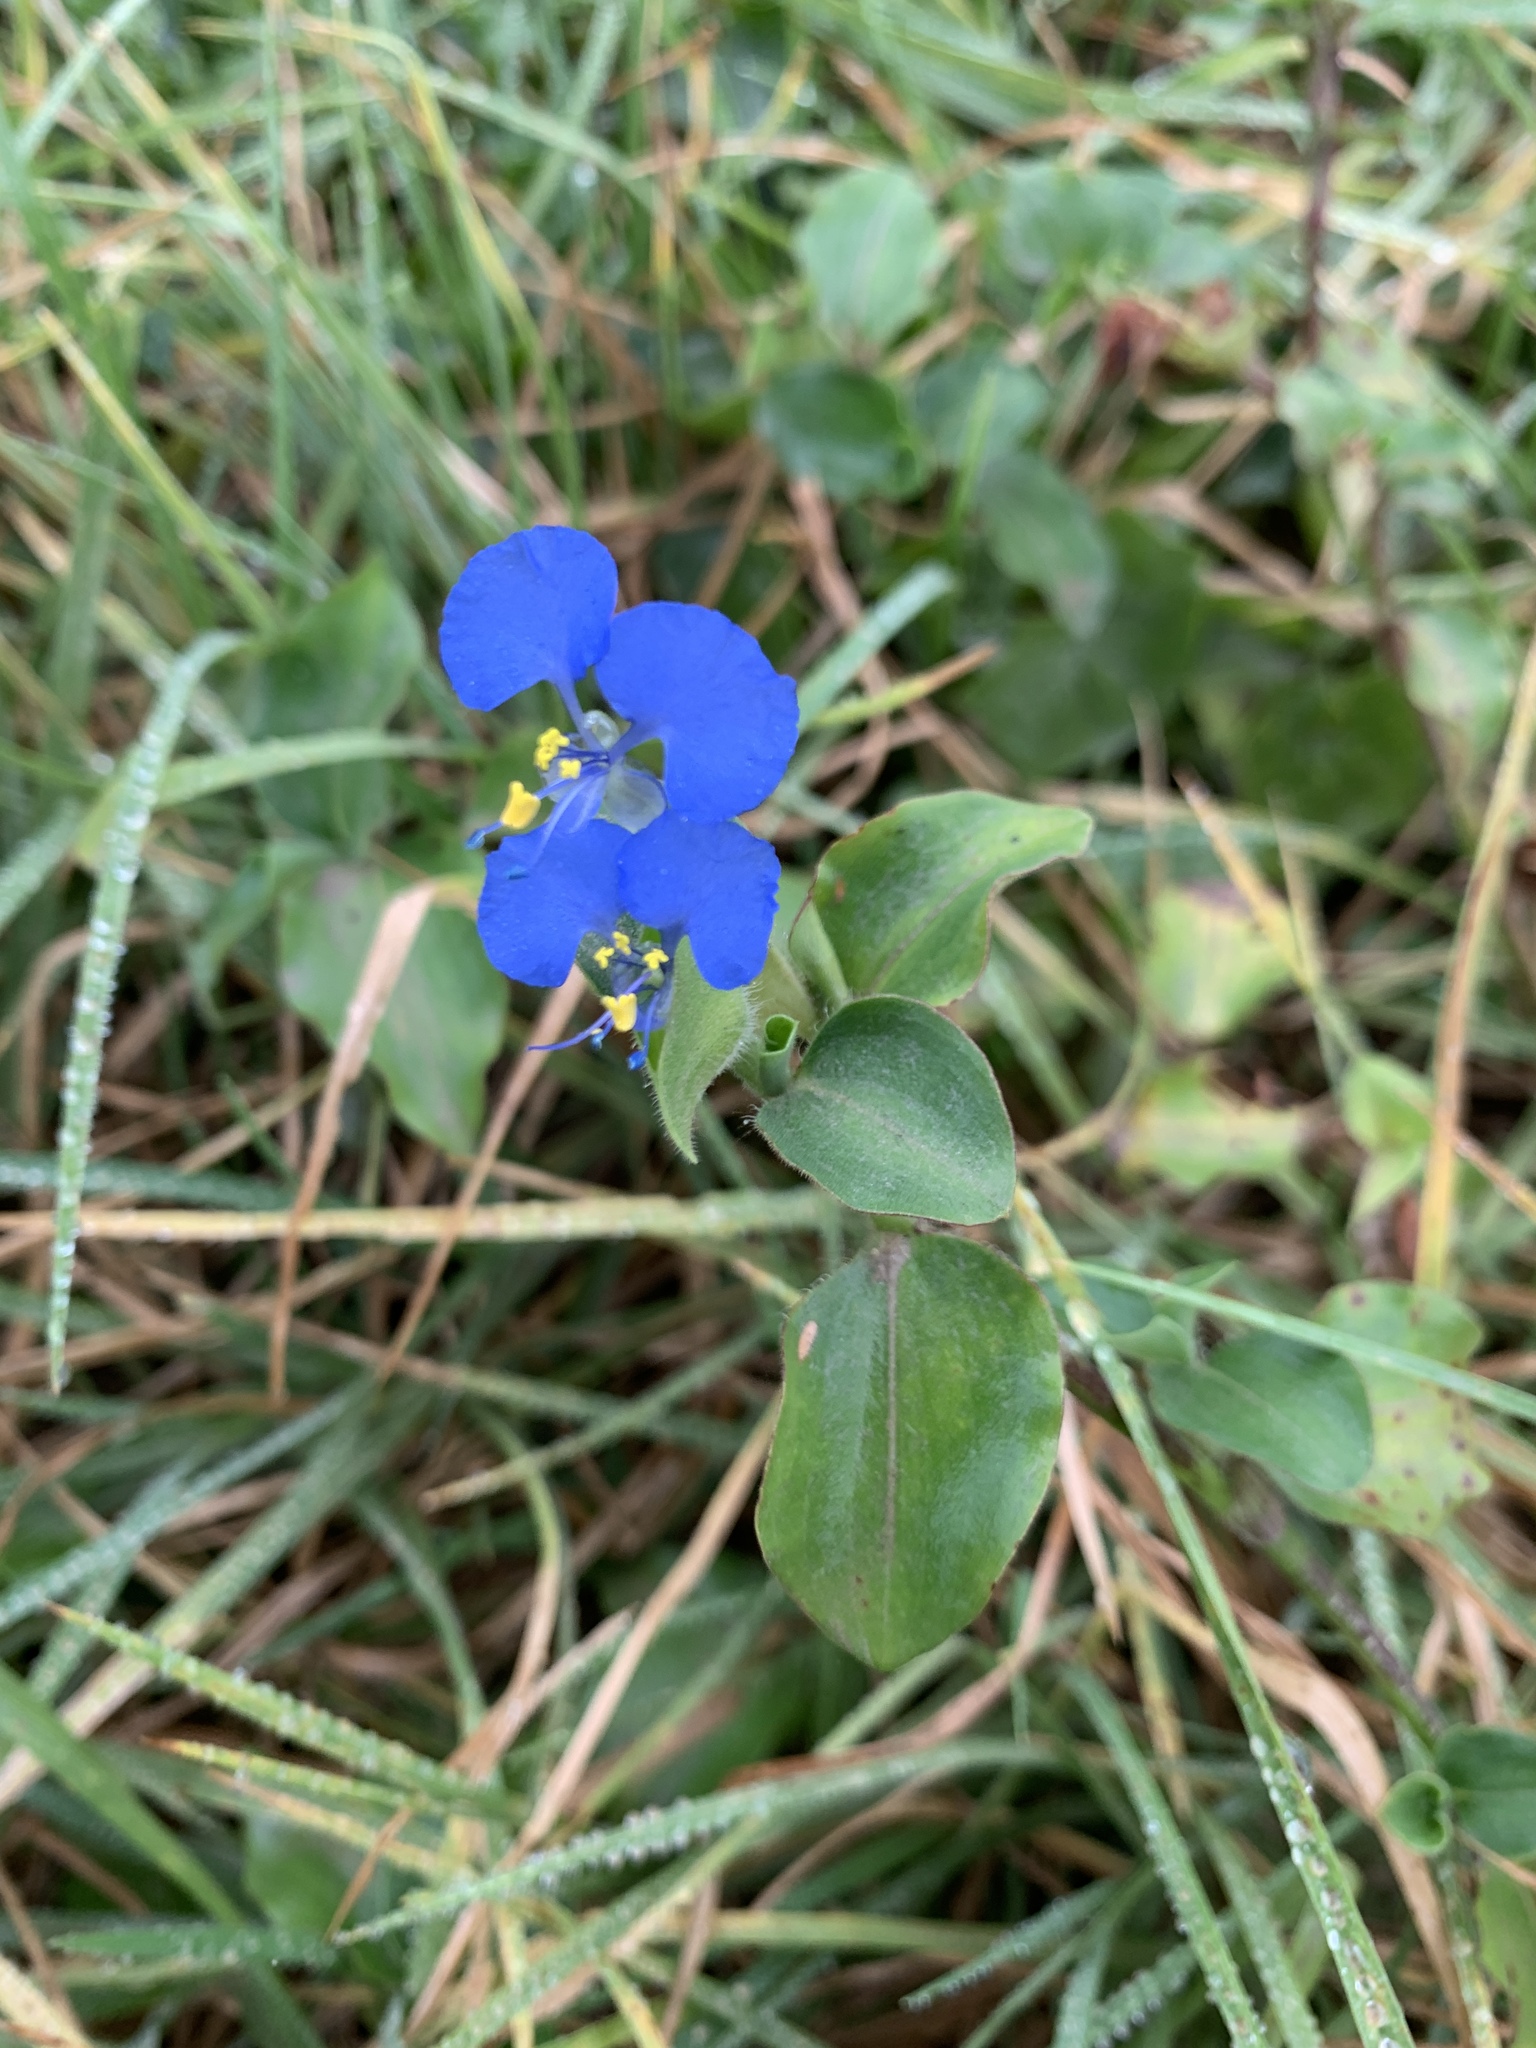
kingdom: Plantae
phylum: Tracheophyta
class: Liliopsida
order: Commelinales
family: Commelinaceae
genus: Commelina
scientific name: Commelina benghalensis
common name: Jio
